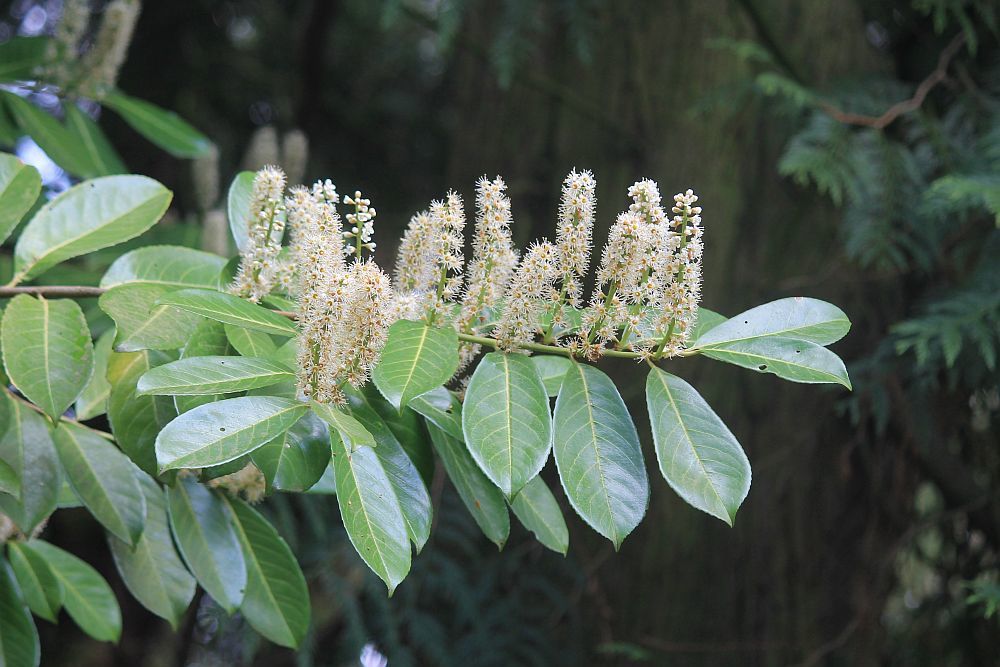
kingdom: Plantae
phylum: Tracheophyta
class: Magnoliopsida
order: Rosales
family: Rosaceae
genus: Prunus
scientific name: Prunus laurocerasus
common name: Cherry laurel
